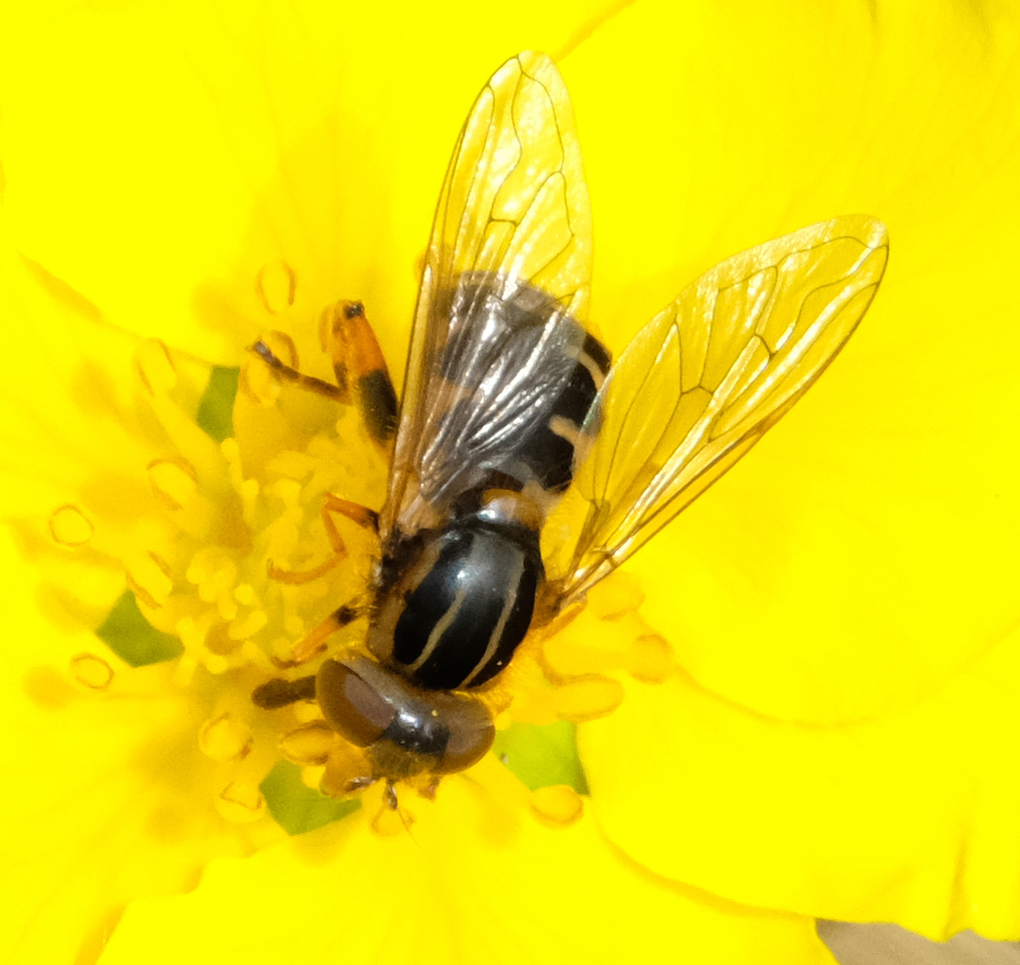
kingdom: Animalia
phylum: Arthropoda
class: Insecta
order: Diptera
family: Syrphidae
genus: Eurimyia
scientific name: Eurimyia lineatus
